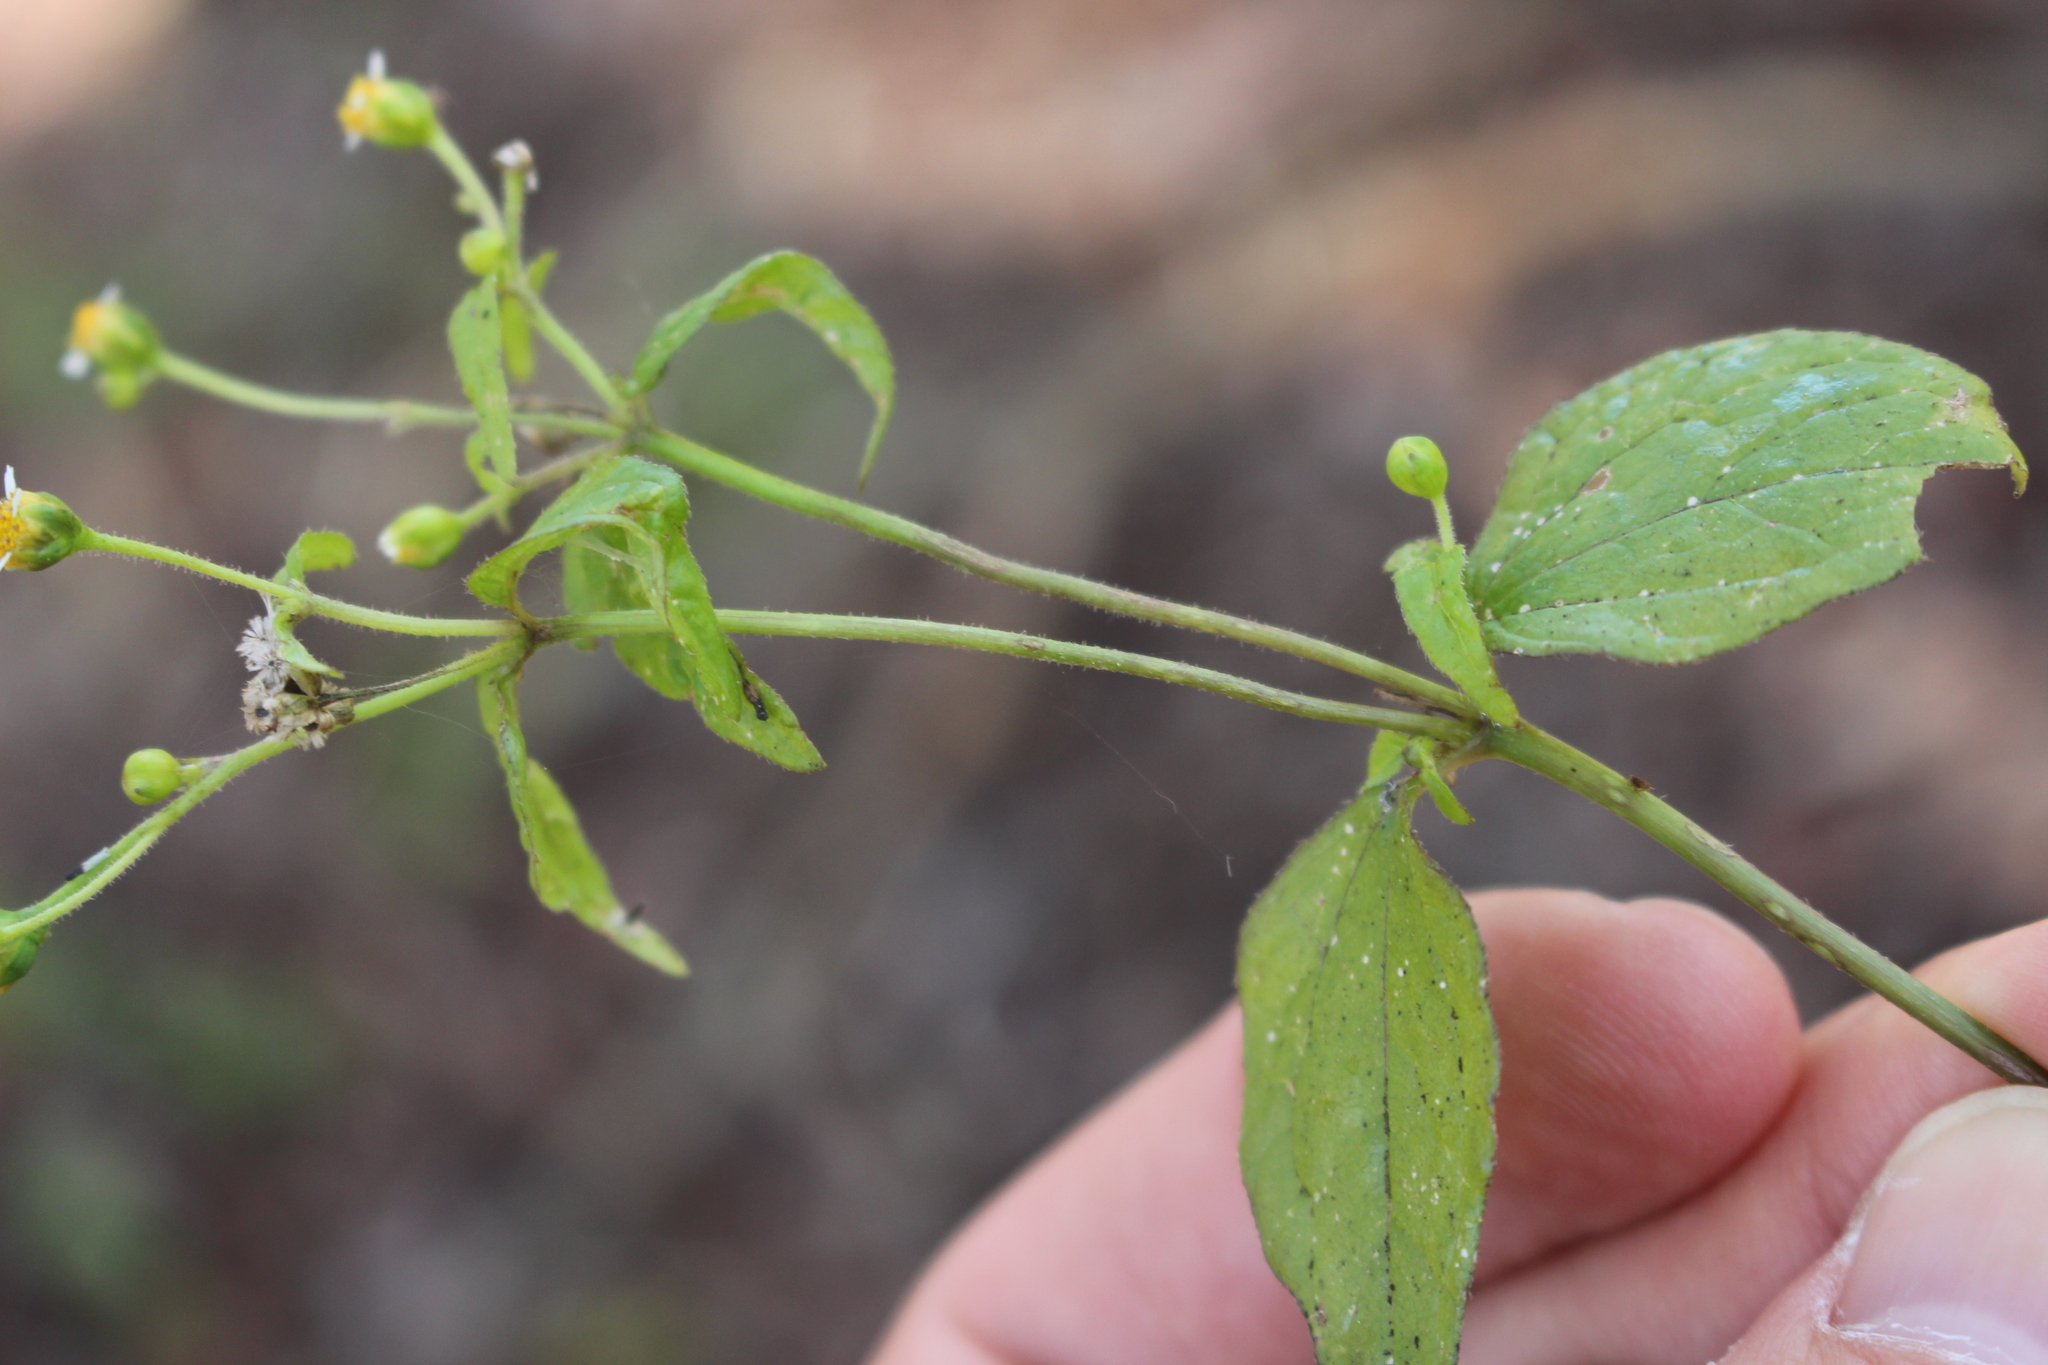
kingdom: Plantae
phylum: Tracheophyta
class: Magnoliopsida
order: Asterales
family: Asteraceae
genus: Galinsoga
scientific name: Galinsoga parviflora
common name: Gallant soldier
